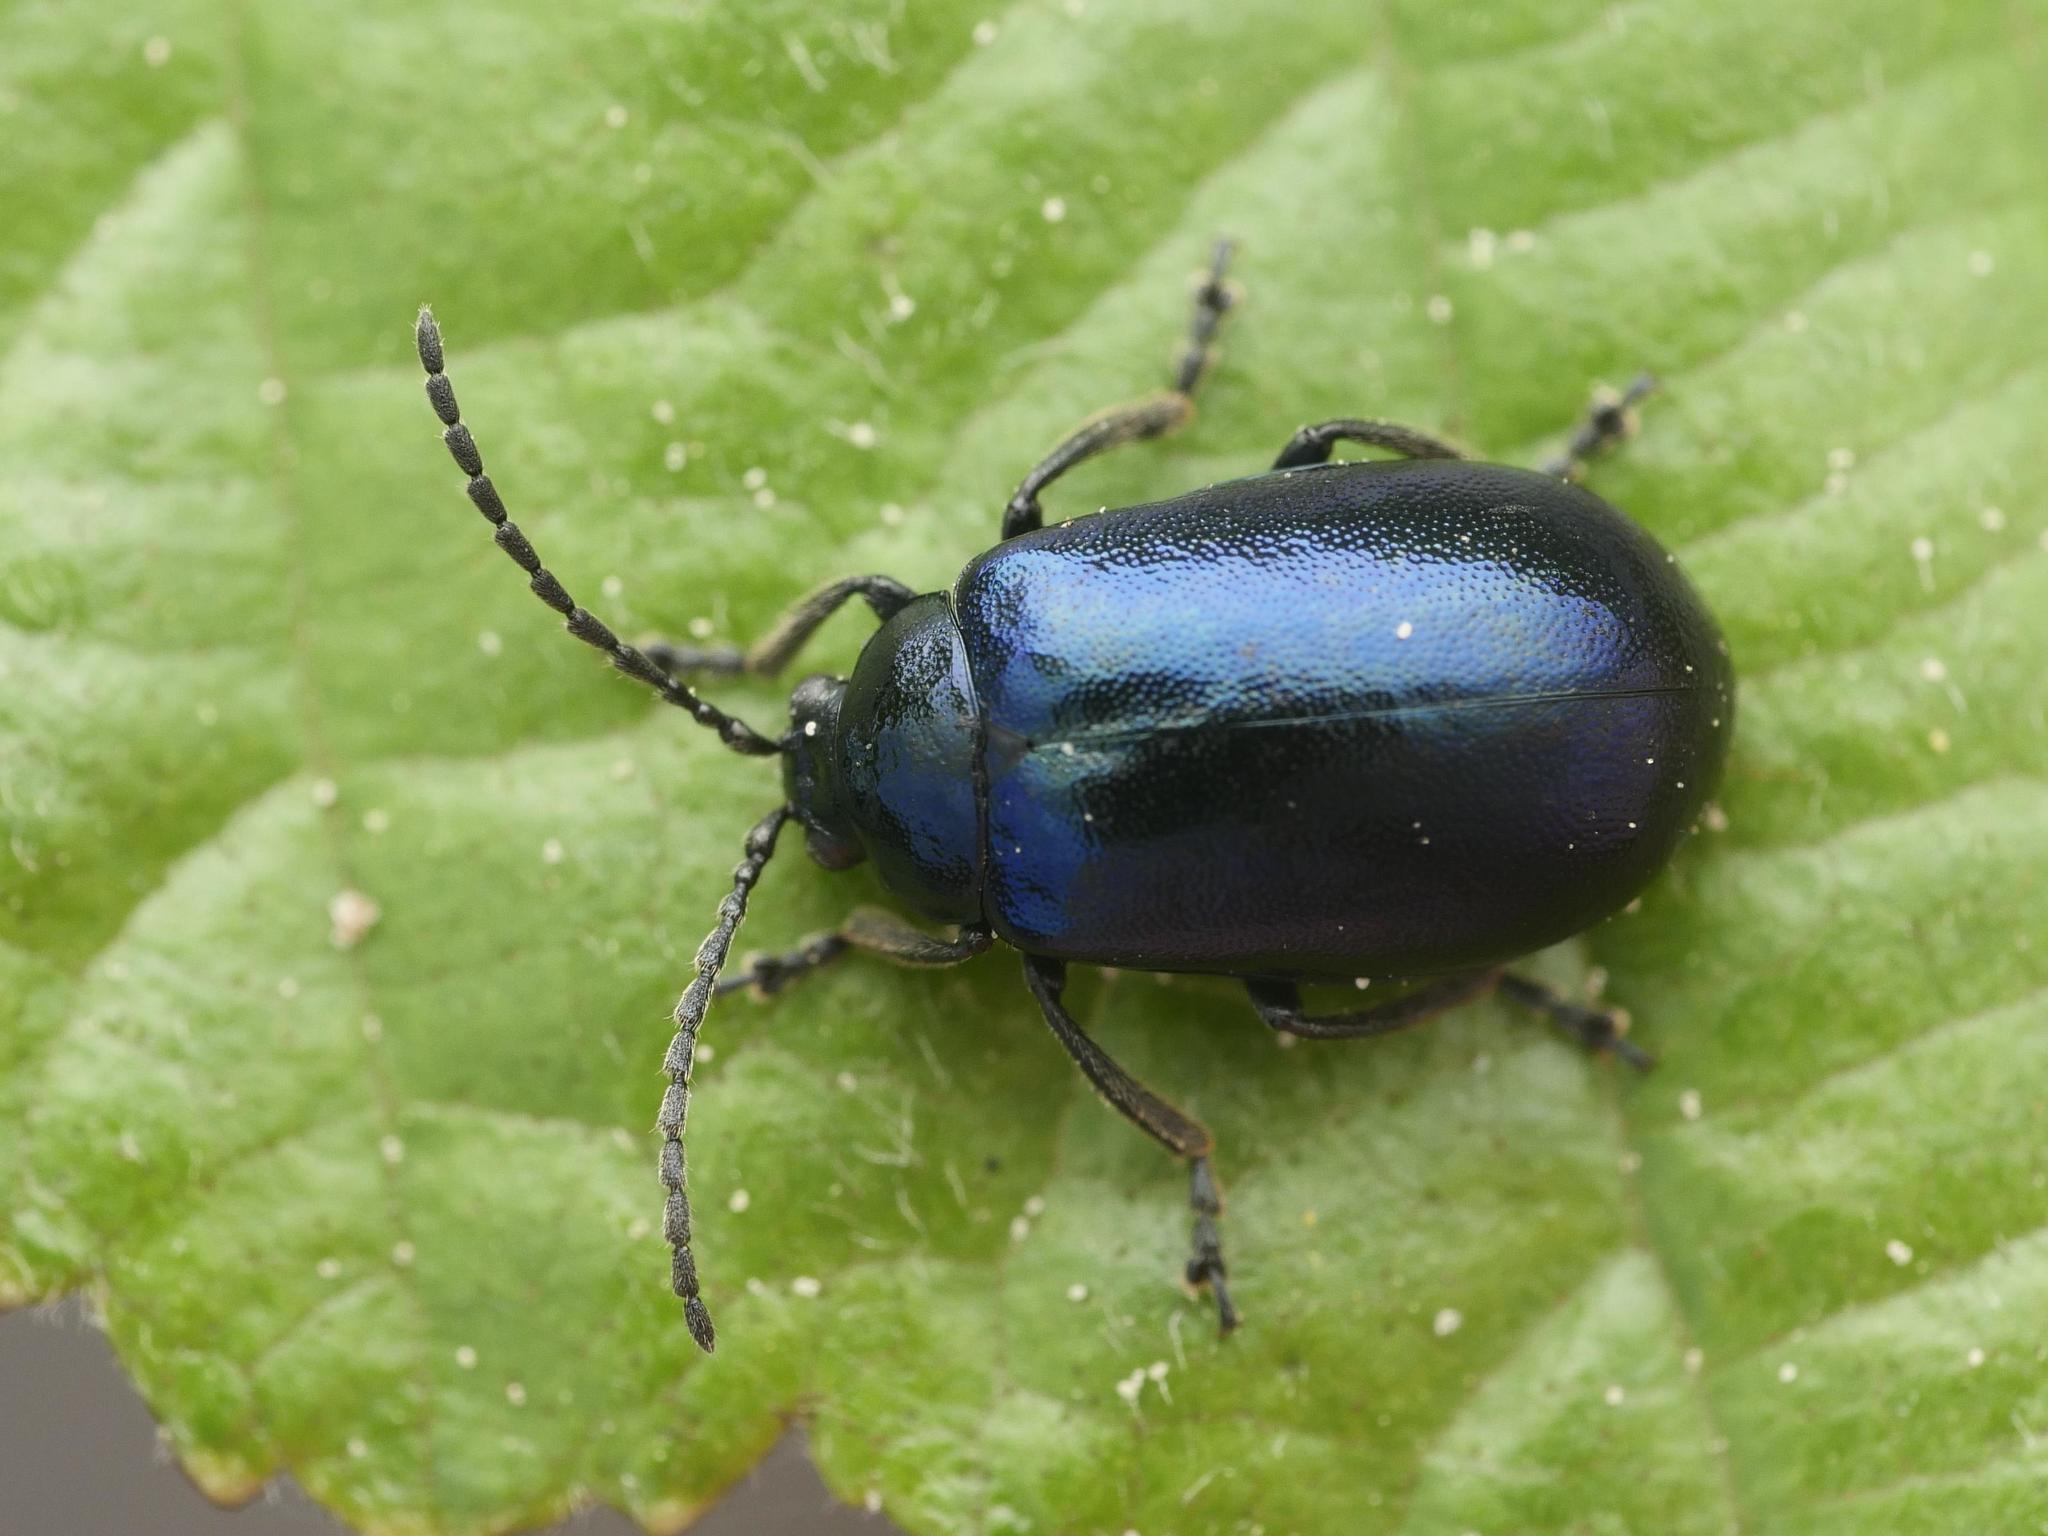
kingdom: Animalia
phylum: Arthropoda
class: Insecta
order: Coleoptera
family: Chrysomelidae
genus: Agelastica
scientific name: Agelastica alni
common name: Alder leaf beetle
